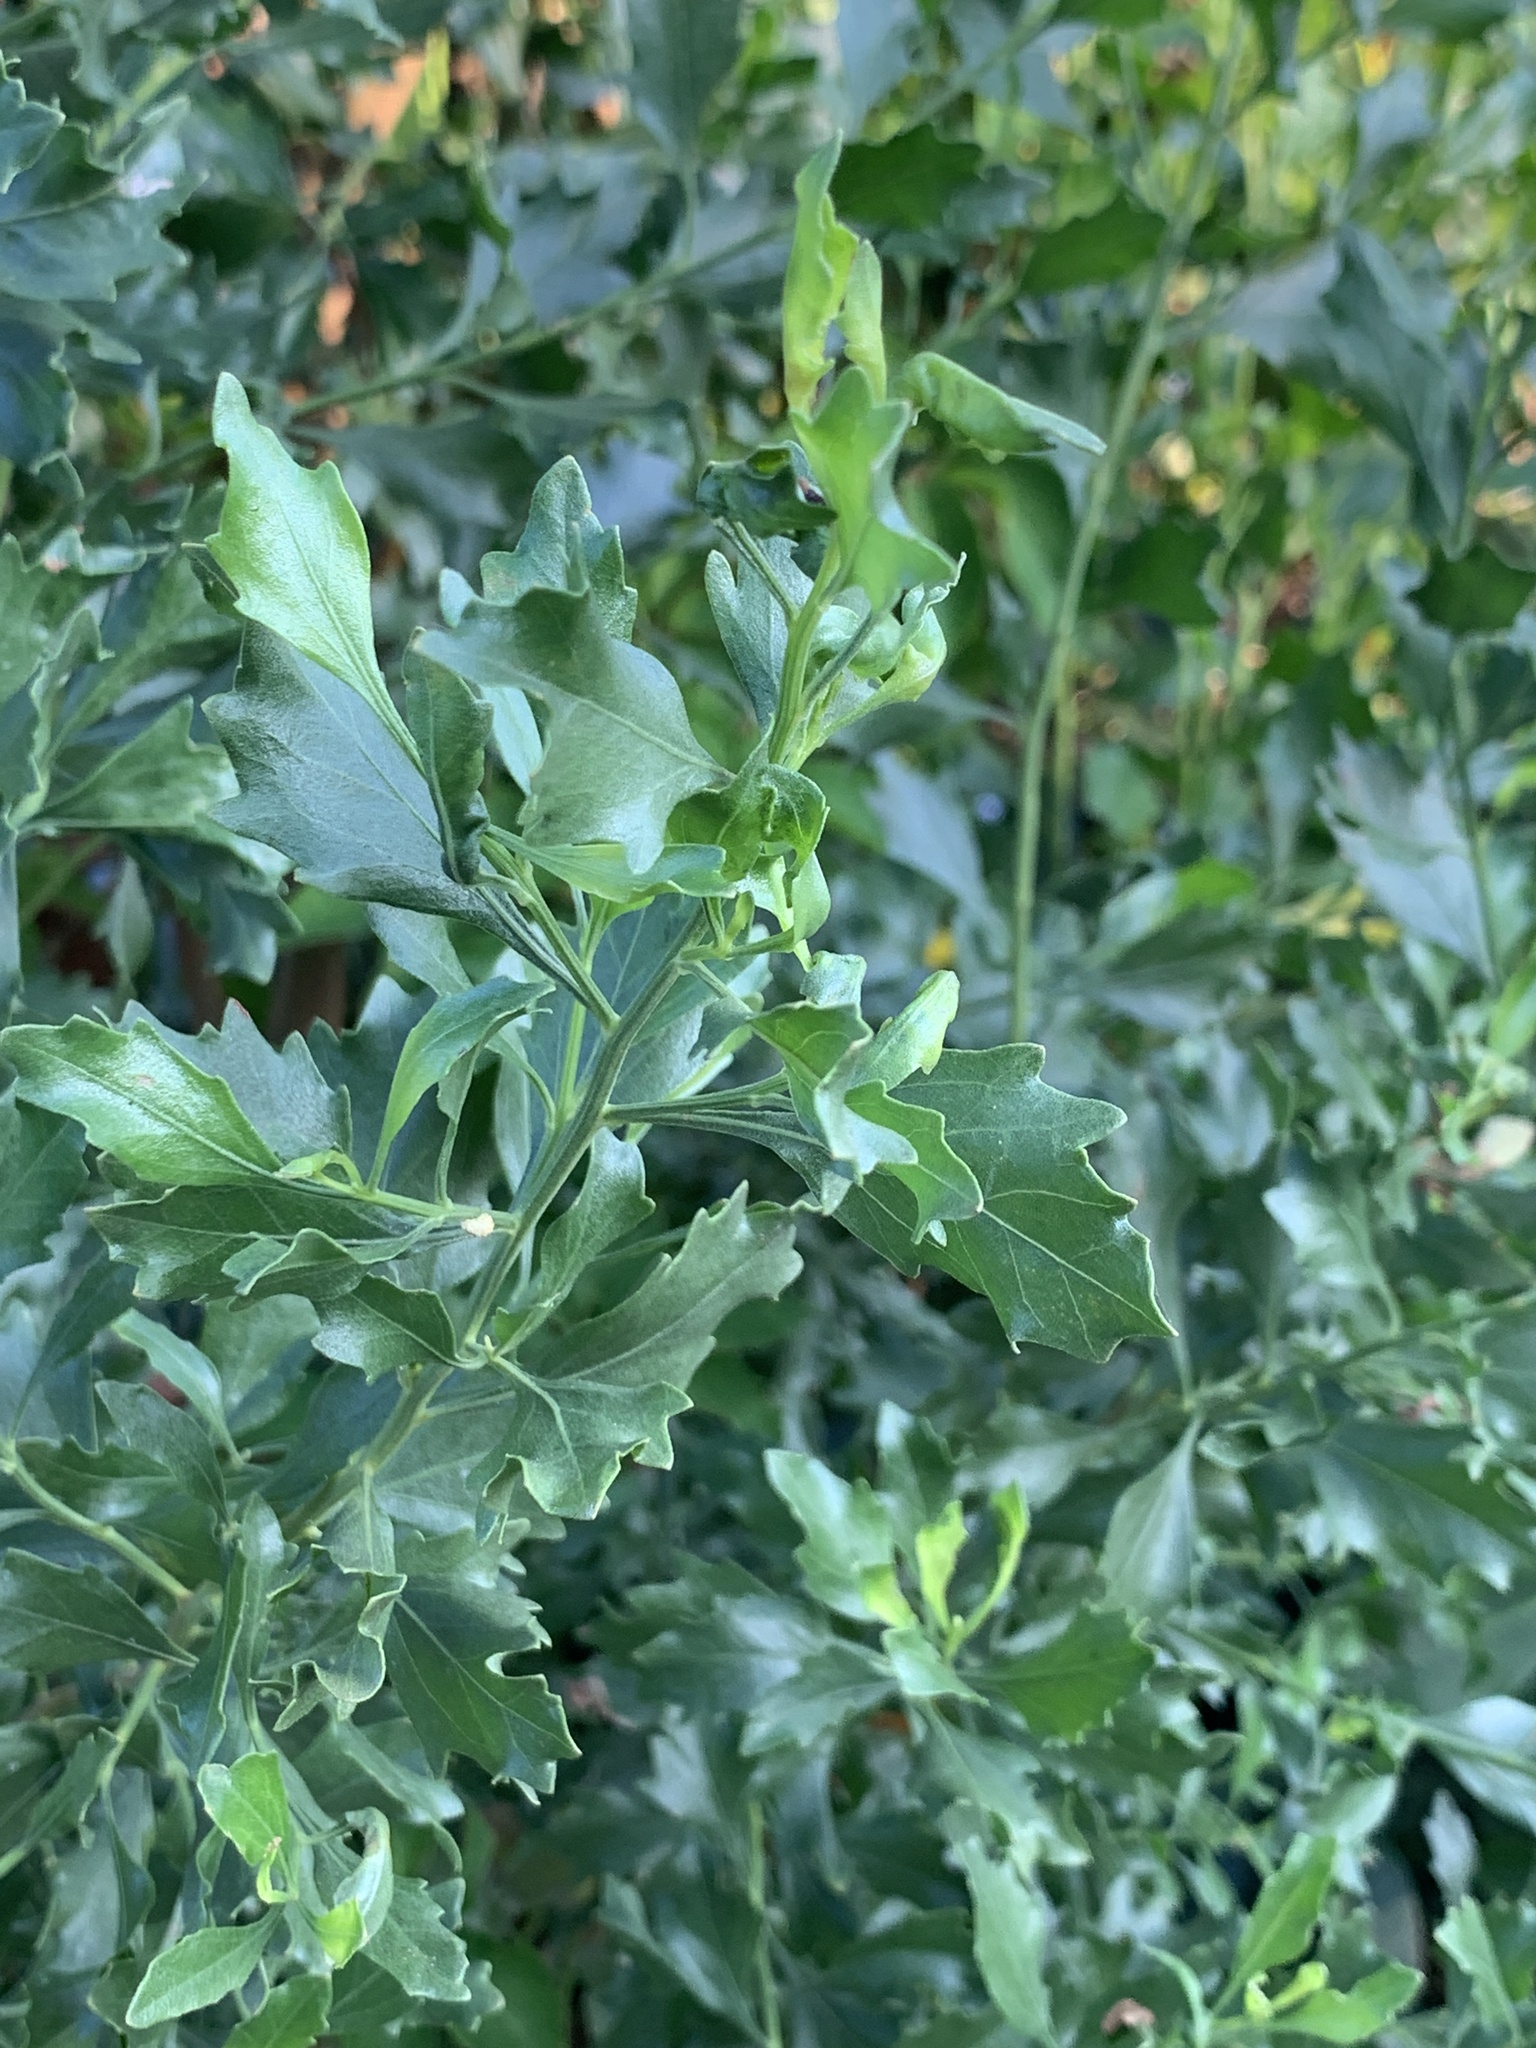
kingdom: Plantae
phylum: Tracheophyta
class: Magnoliopsida
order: Asterales
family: Asteraceae
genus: Baccharis
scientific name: Baccharis halimifolia
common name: Eastern baccharis
